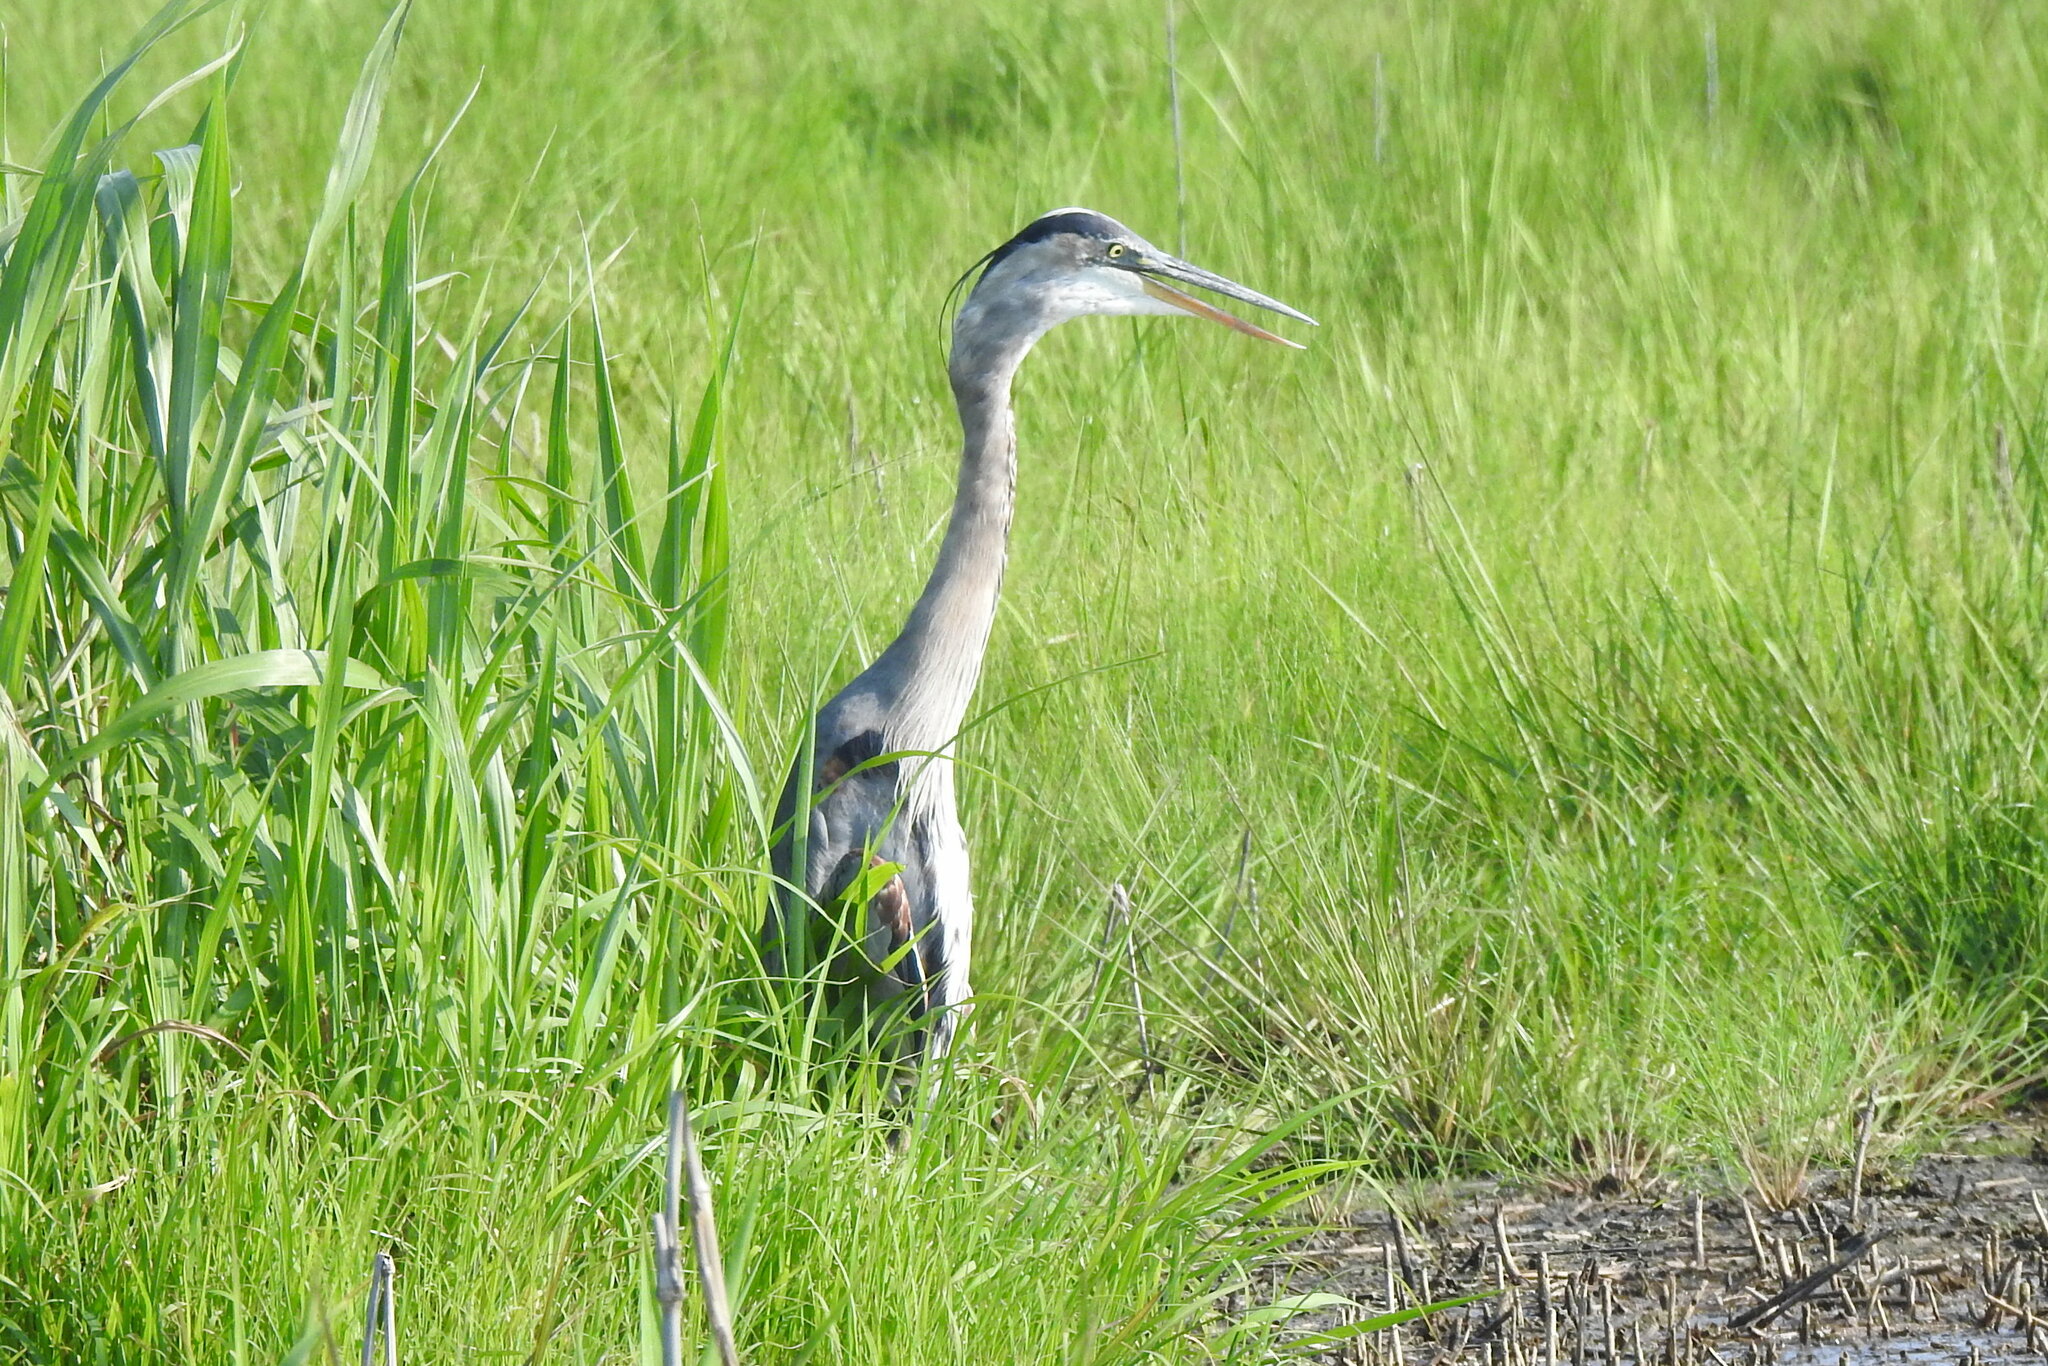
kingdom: Animalia
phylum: Chordata
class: Aves
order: Pelecaniformes
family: Ardeidae
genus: Ardea
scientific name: Ardea herodias
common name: Great blue heron
